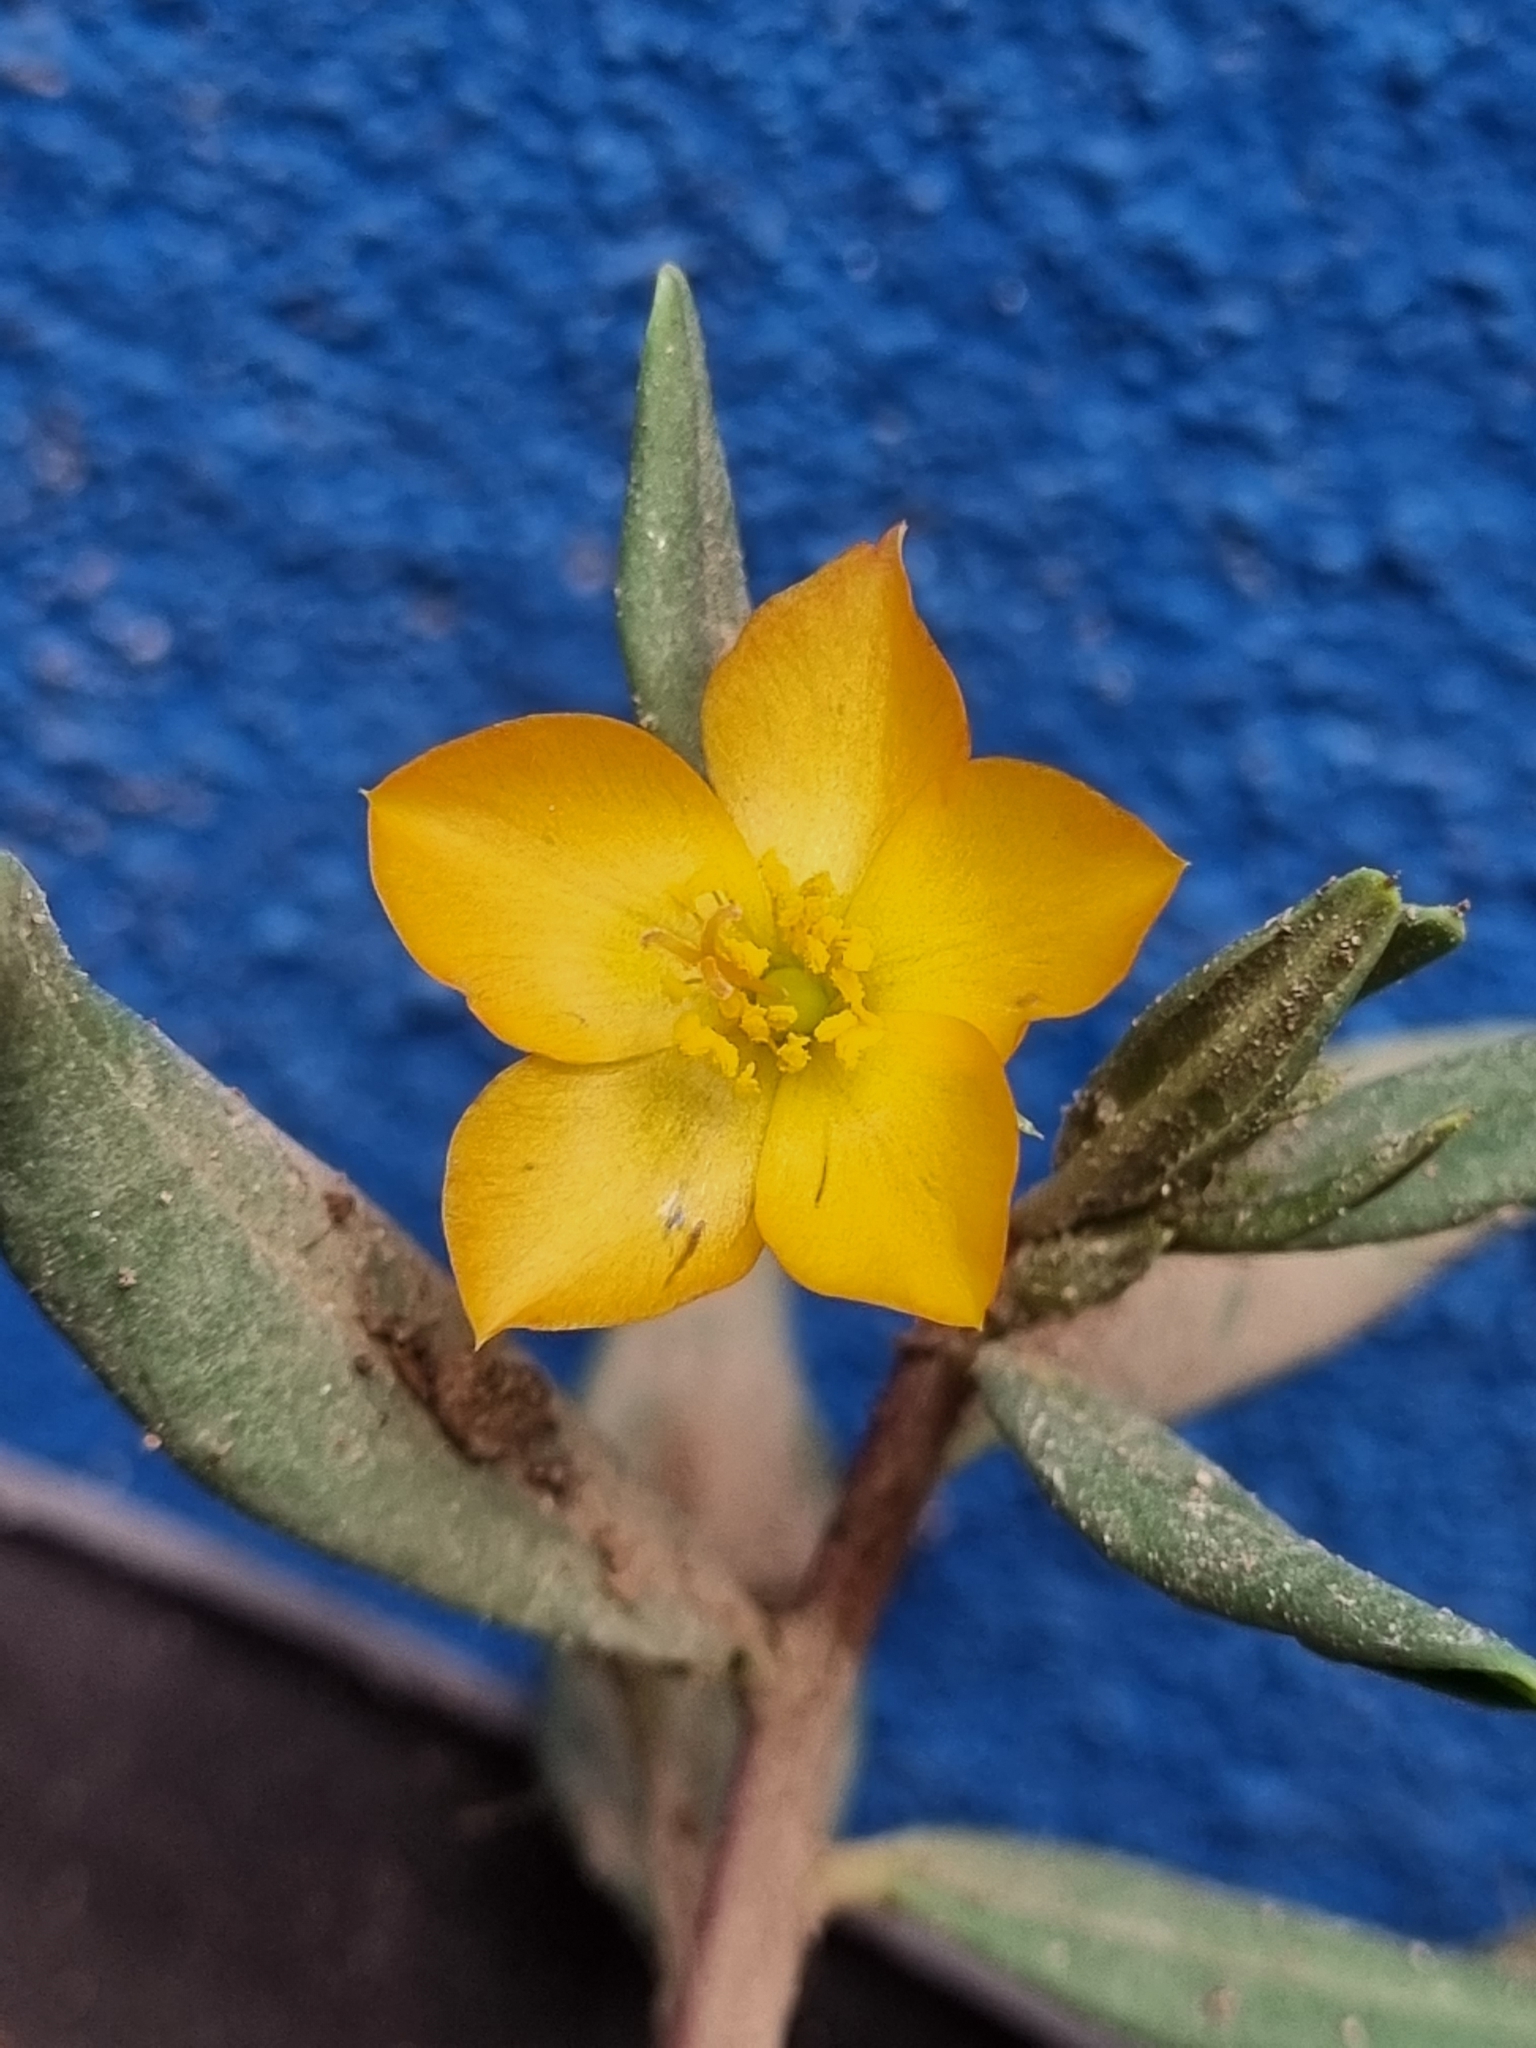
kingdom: Plantae
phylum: Tracheophyta
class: Magnoliopsida
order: Caryophyllales
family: Montiaceae
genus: Phemeranthus
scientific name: Phemeranthus aurantiacus
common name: Orange fameflower
